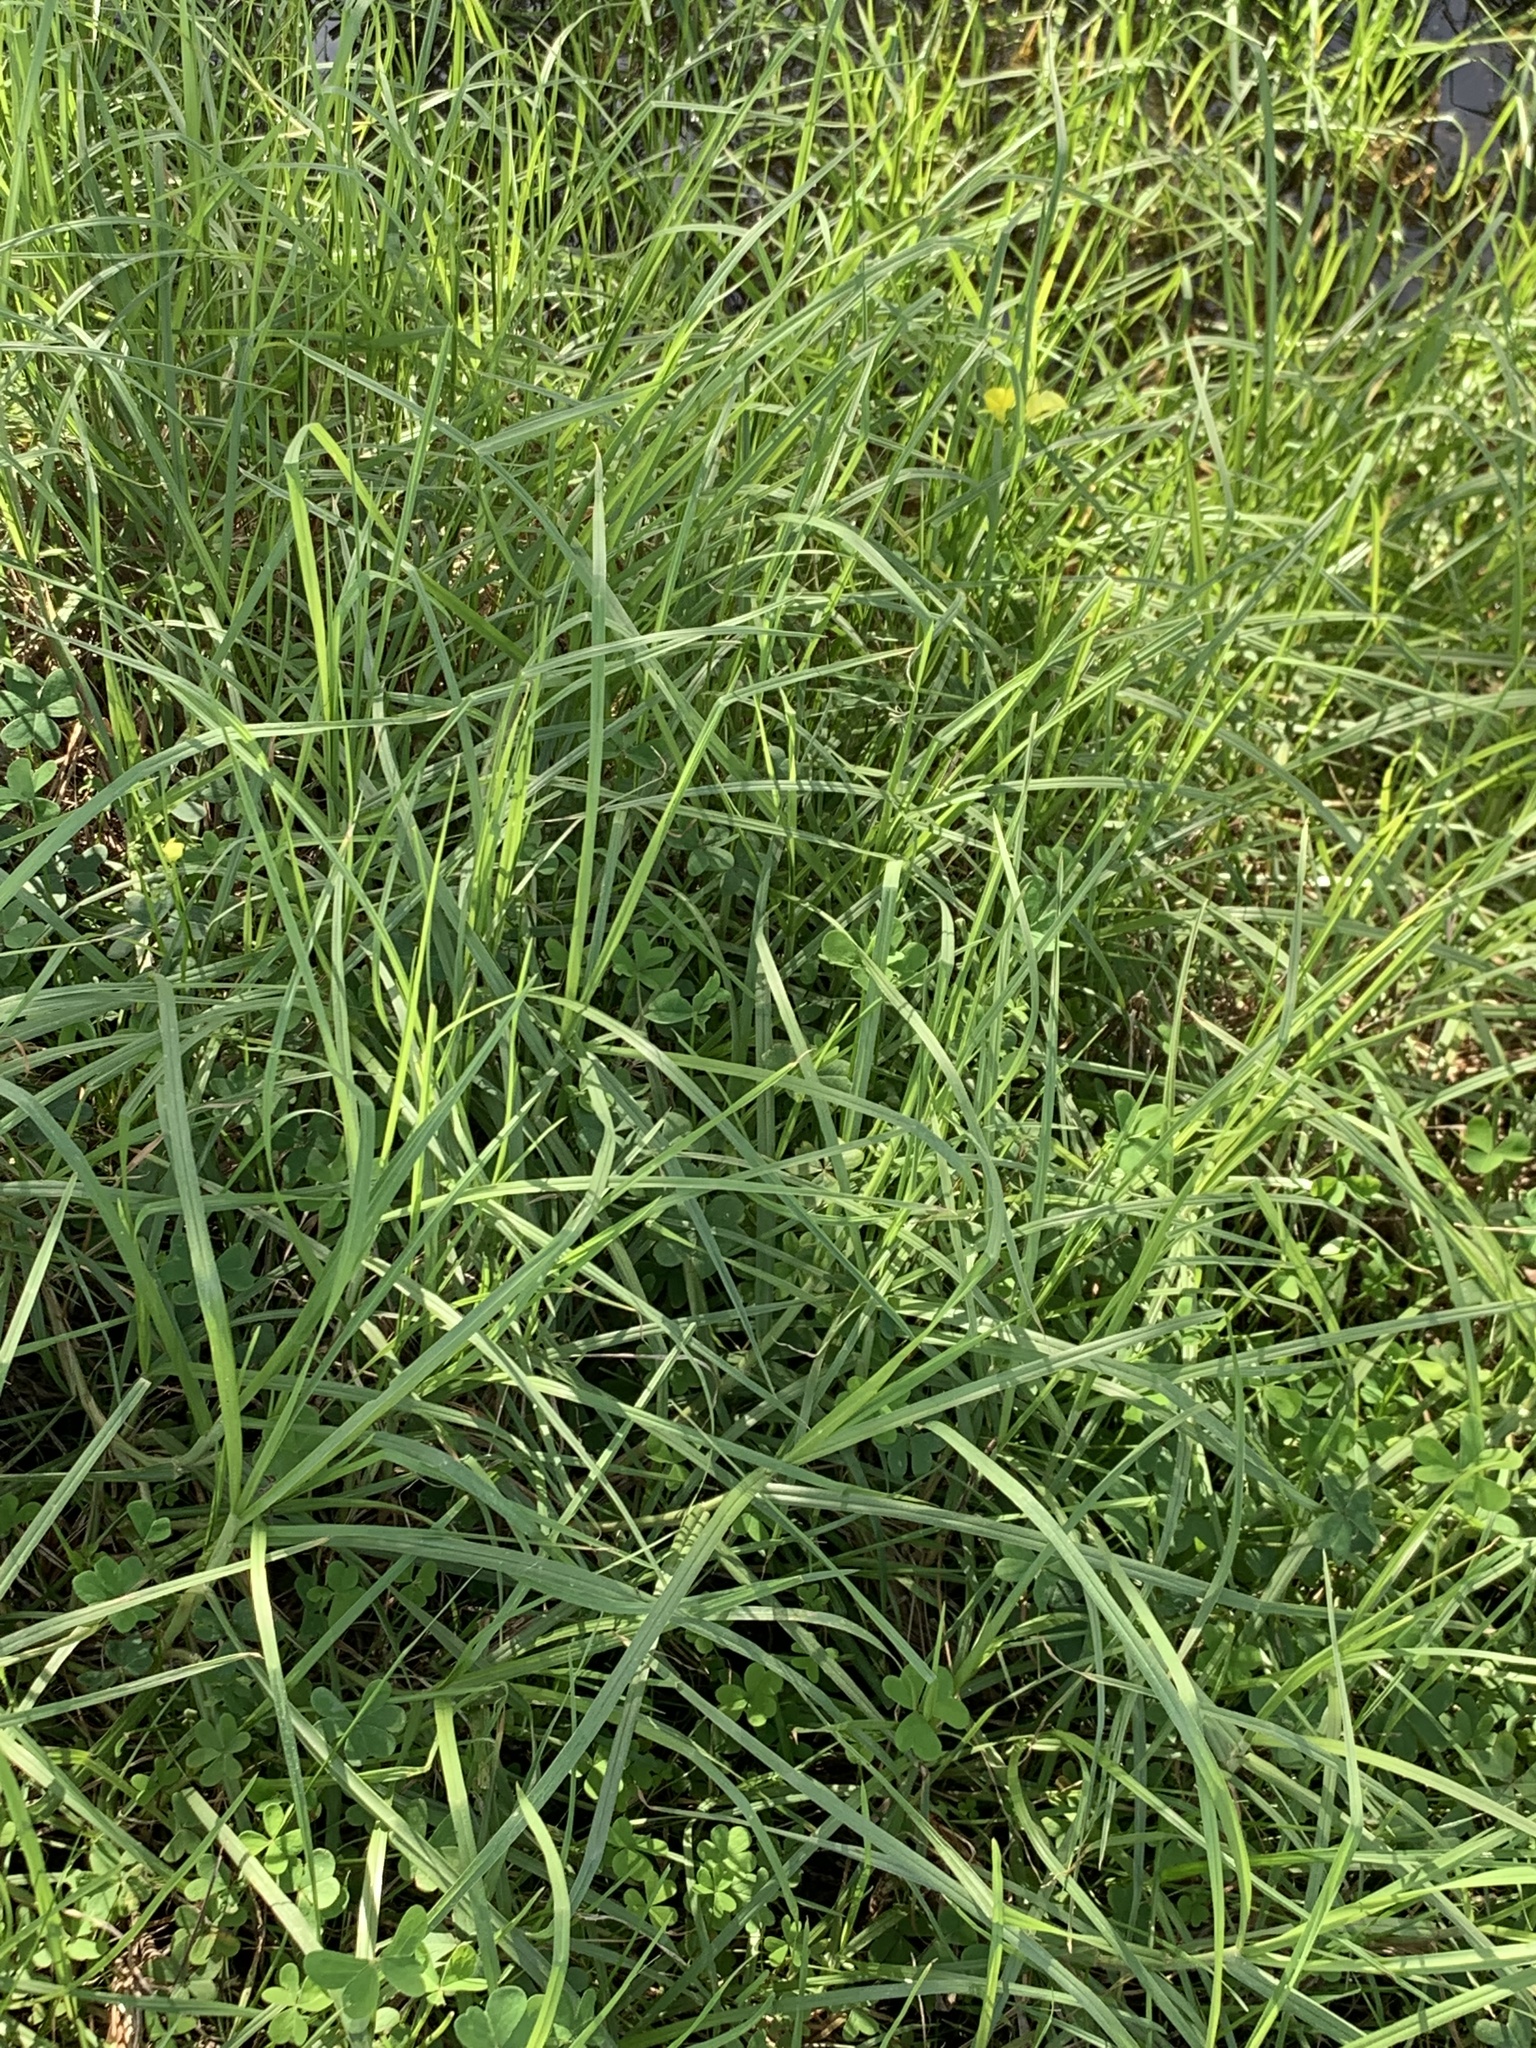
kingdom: Plantae
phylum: Tracheophyta
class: Liliopsida
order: Poales
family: Poaceae
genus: Cenchrus
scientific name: Cenchrus clandestinus
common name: Kikuyugrass
